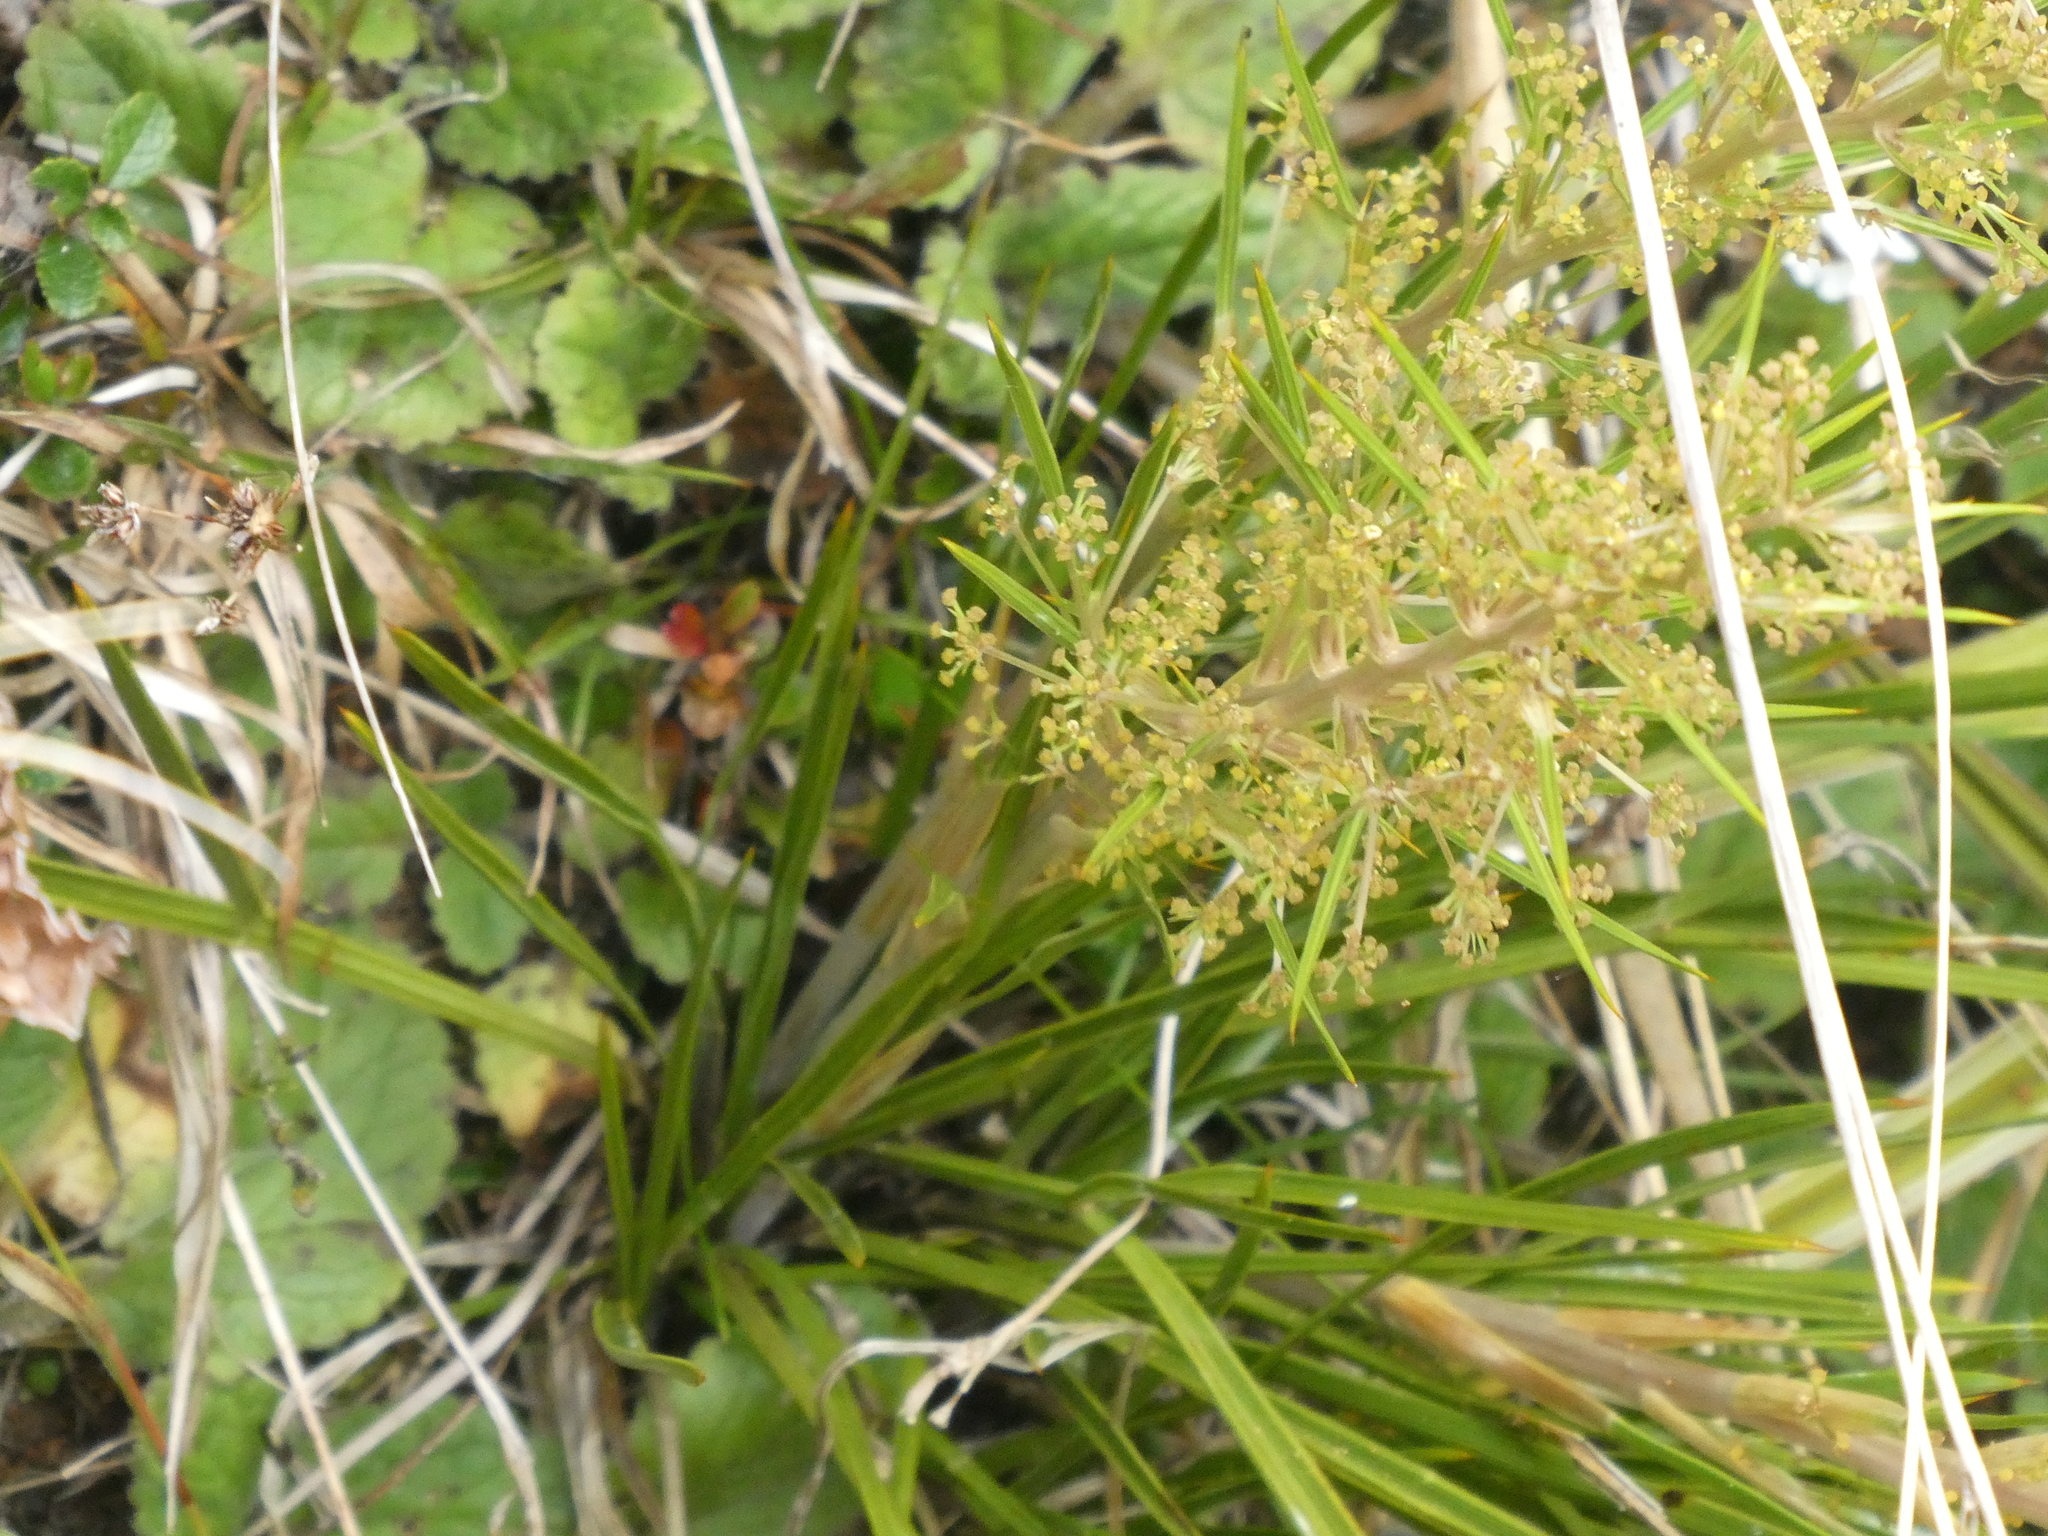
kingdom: Plantae
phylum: Tracheophyta
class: Magnoliopsida
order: Apiales
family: Apiaceae
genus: Aciphylla
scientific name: Aciphylla anomala
